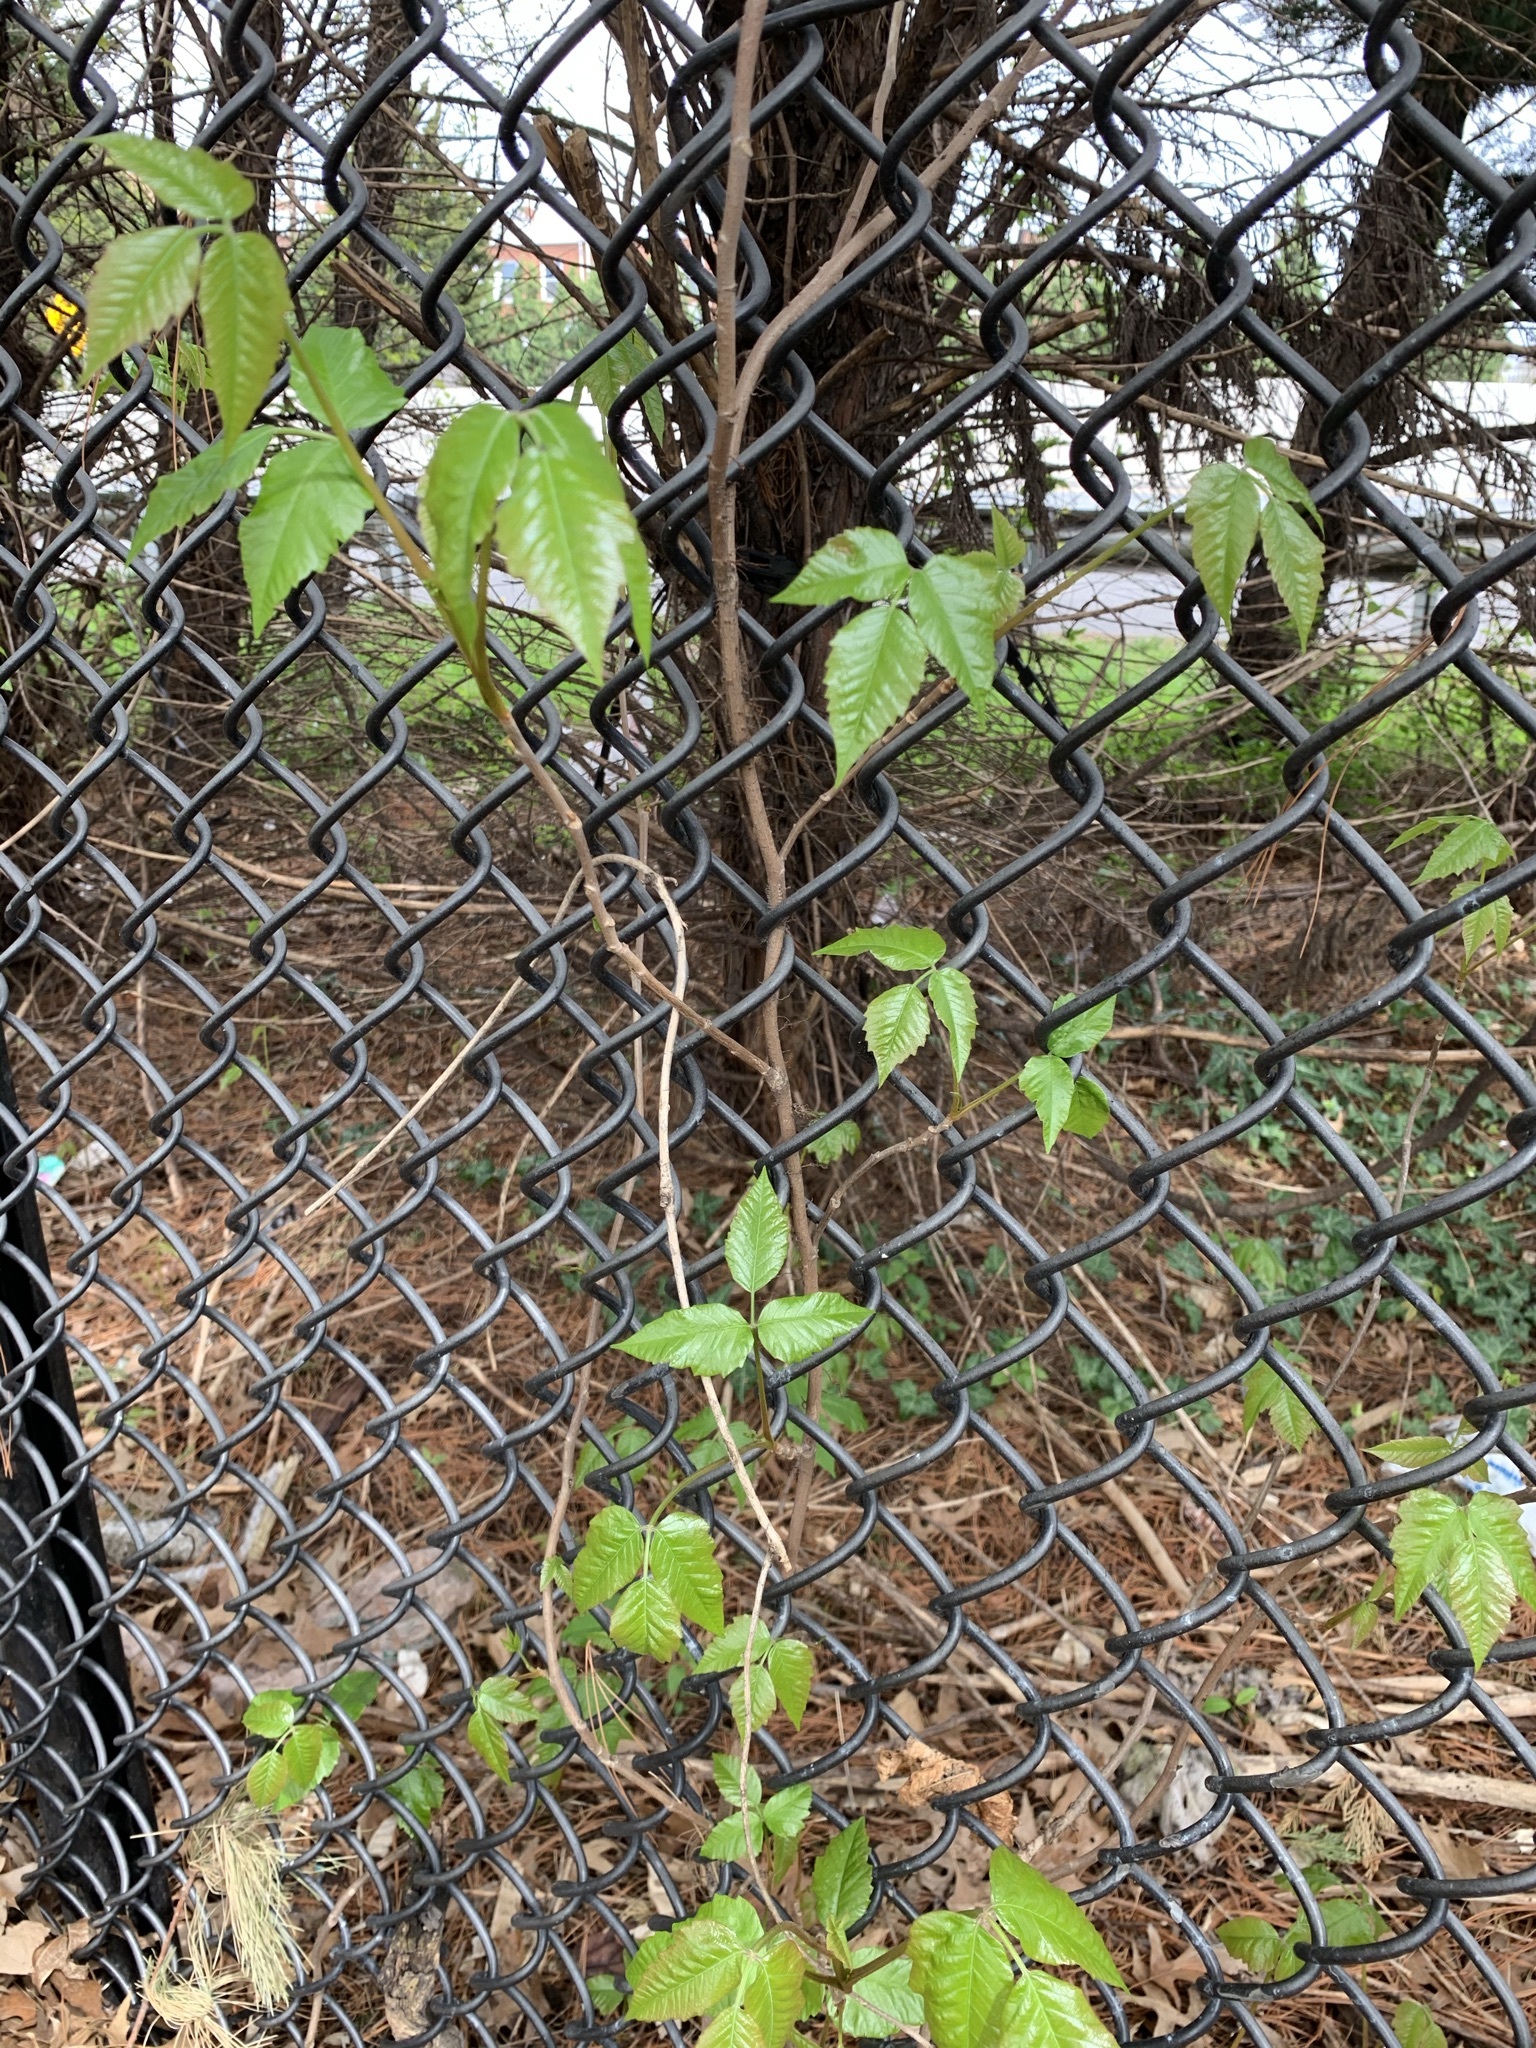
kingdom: Plantae
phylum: Tracheophyta
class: Magnoliopsida
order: Sapindales
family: Anacardiaceae
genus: Toxicodendron
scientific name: Toxicodendron radicans
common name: Poison ivy
